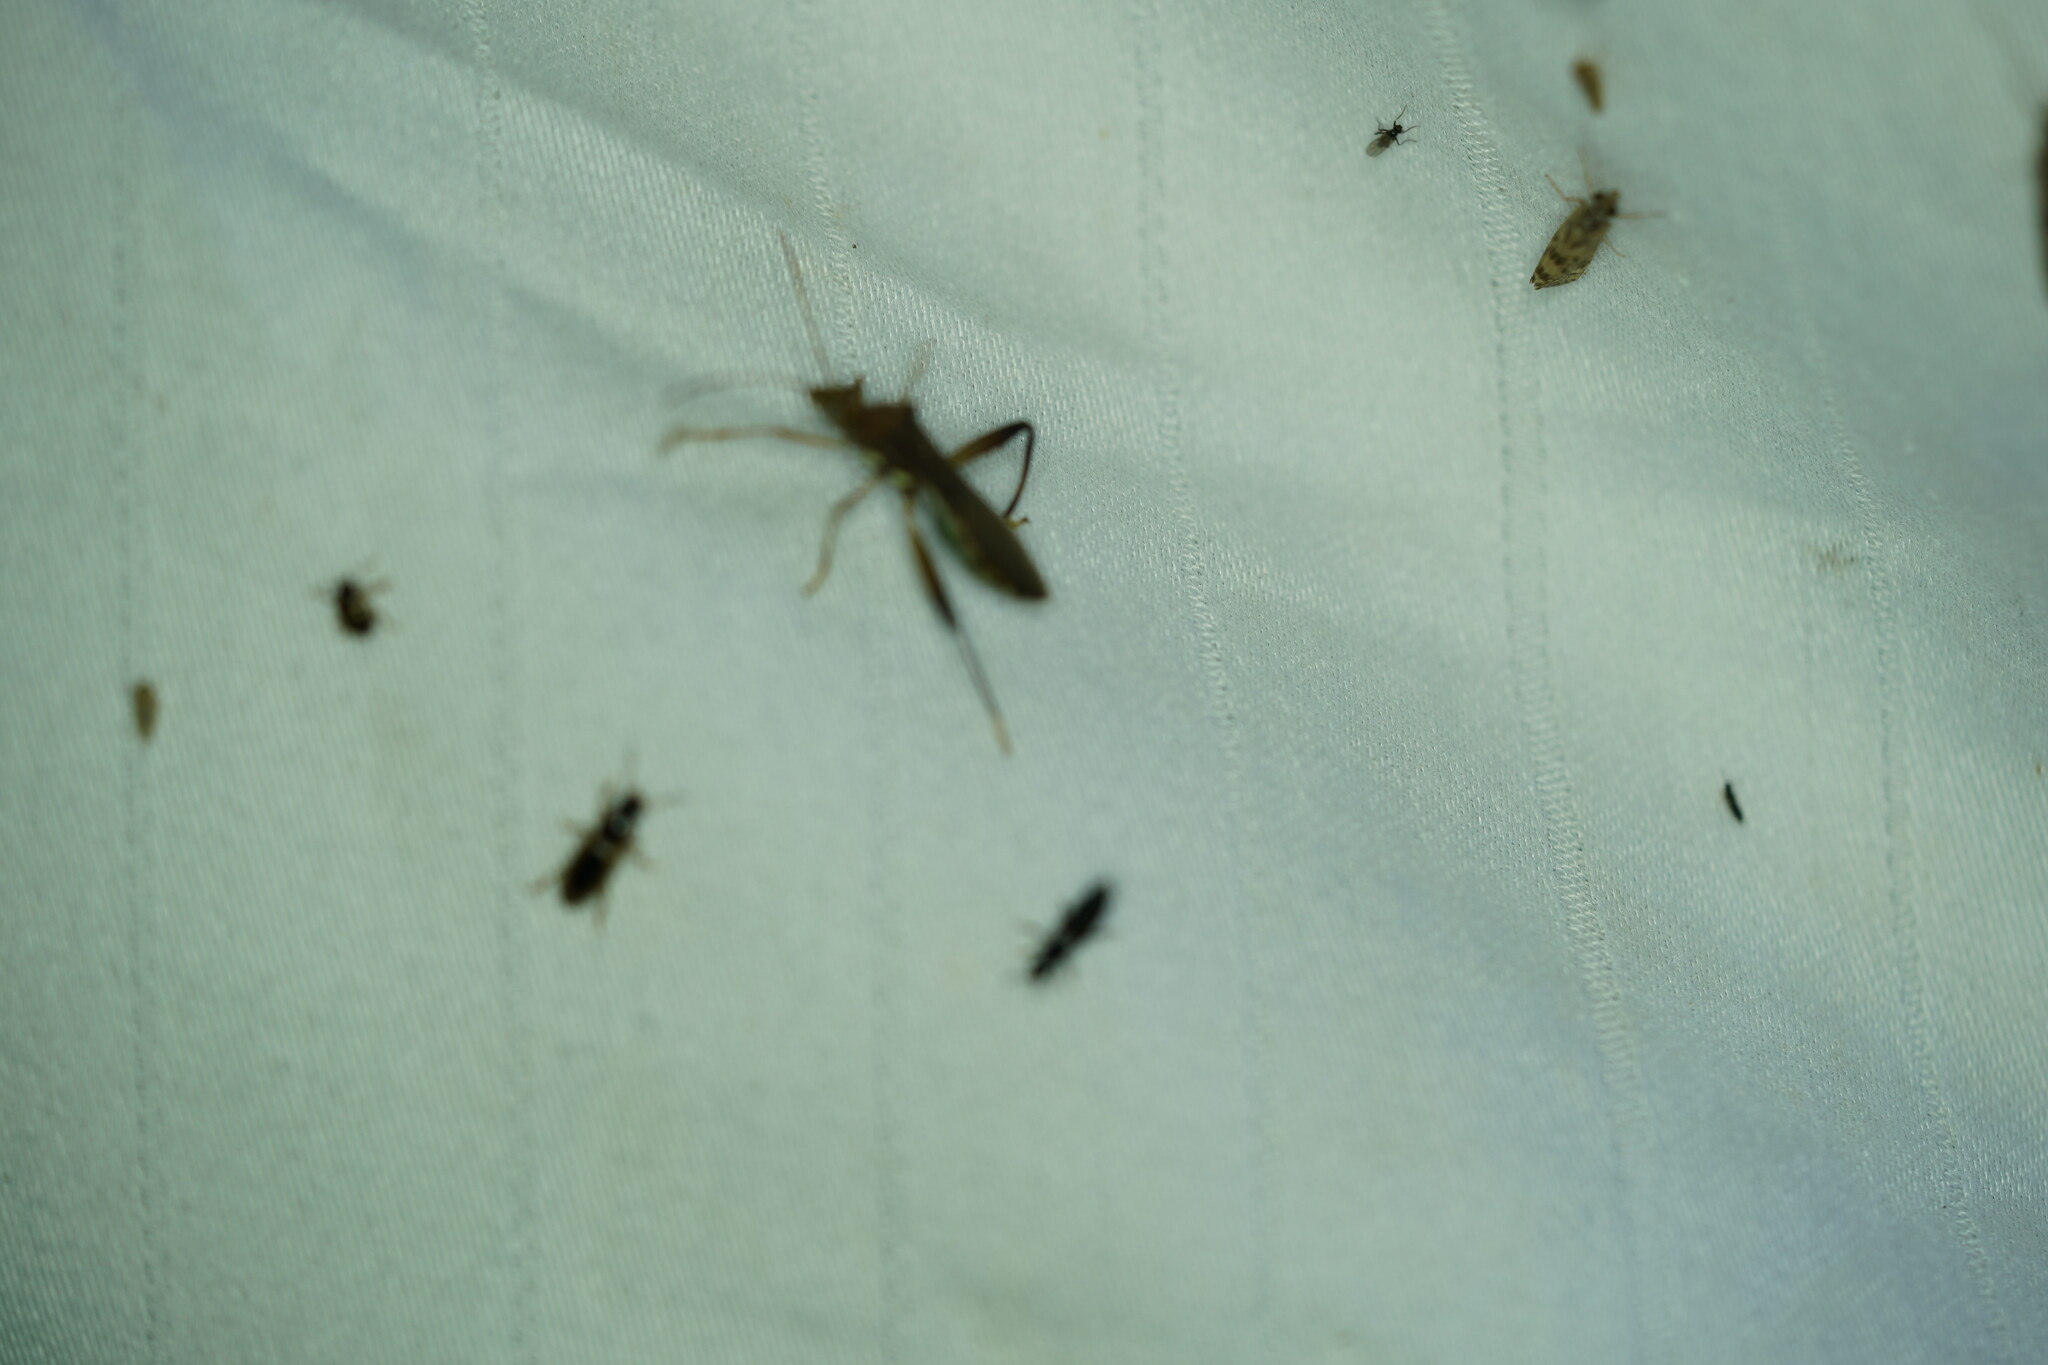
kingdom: Animalia
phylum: Arthropoda
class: Insecta
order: Hemiptera
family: Alydidae
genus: Hyalymenus
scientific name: Hyalymenus tarsatus
